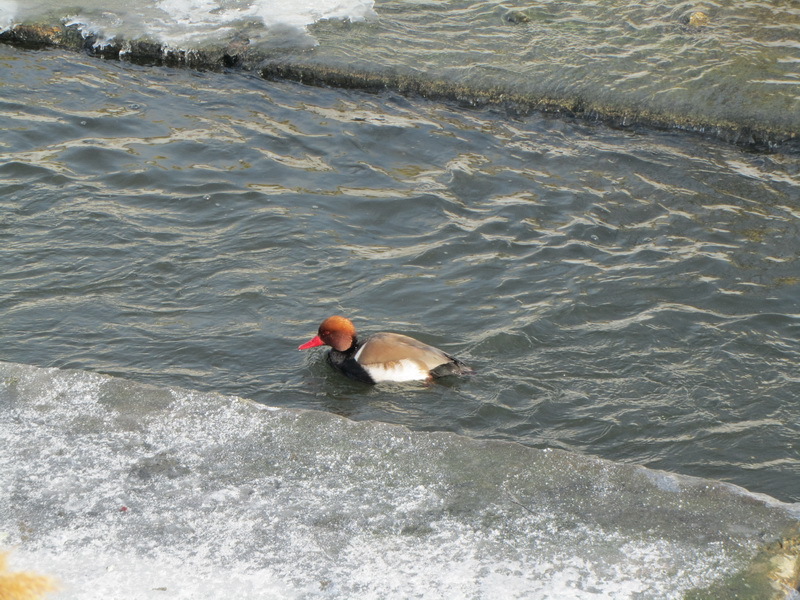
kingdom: Animalia
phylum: Chordata
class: Aves
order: Anseriformes
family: Anatidae
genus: Netta
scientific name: Netta rufina
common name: Red-crested pochard
